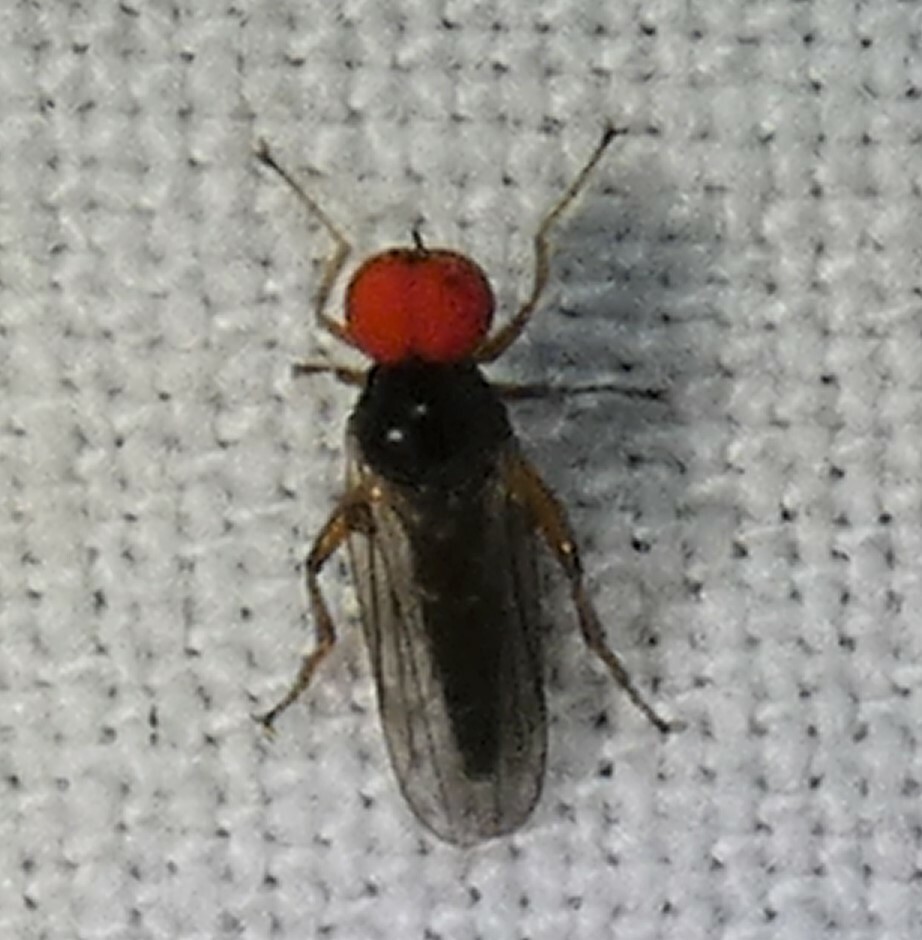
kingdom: Animalia
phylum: Arthropoda
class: Insecta
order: Diptera
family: Hybotidae
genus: Syneches
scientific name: Syneches hyalinus
